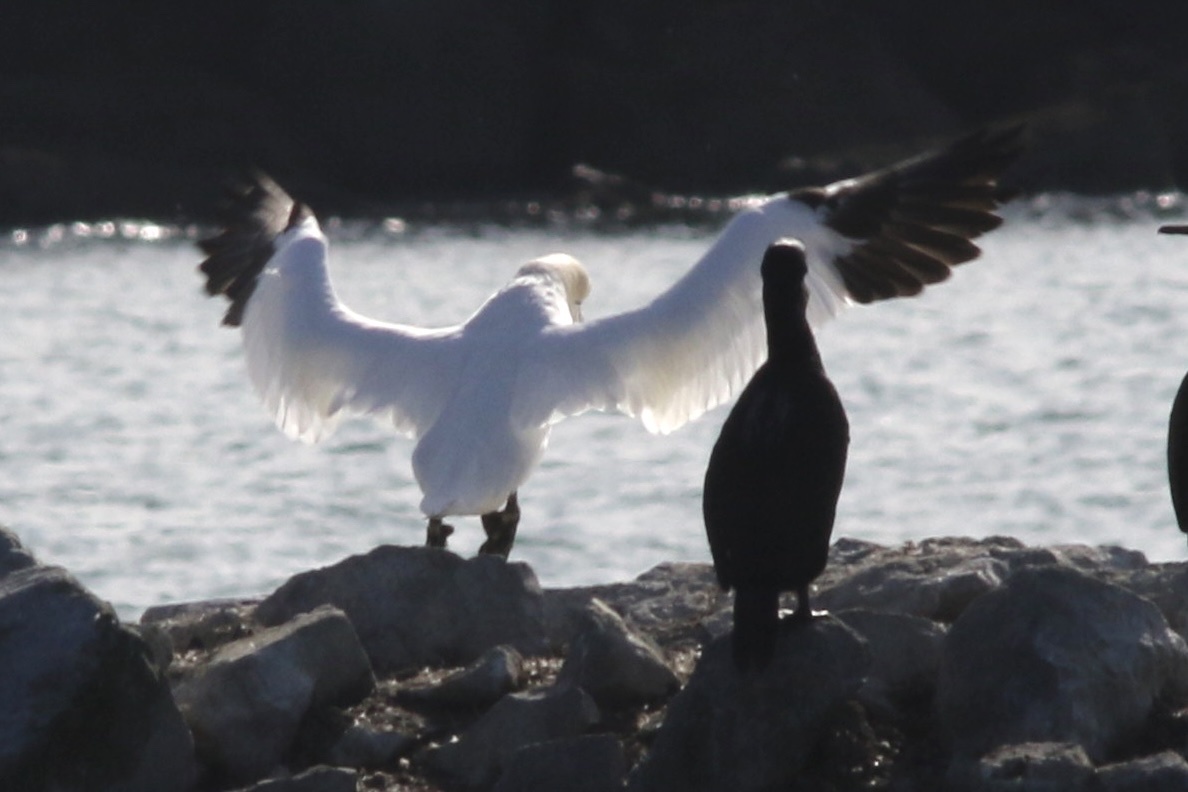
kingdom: Animalia
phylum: Chordata
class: Aves
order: Suliformes
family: Sulidae
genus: Morus
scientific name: Morus bassanus
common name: Northern gannet
